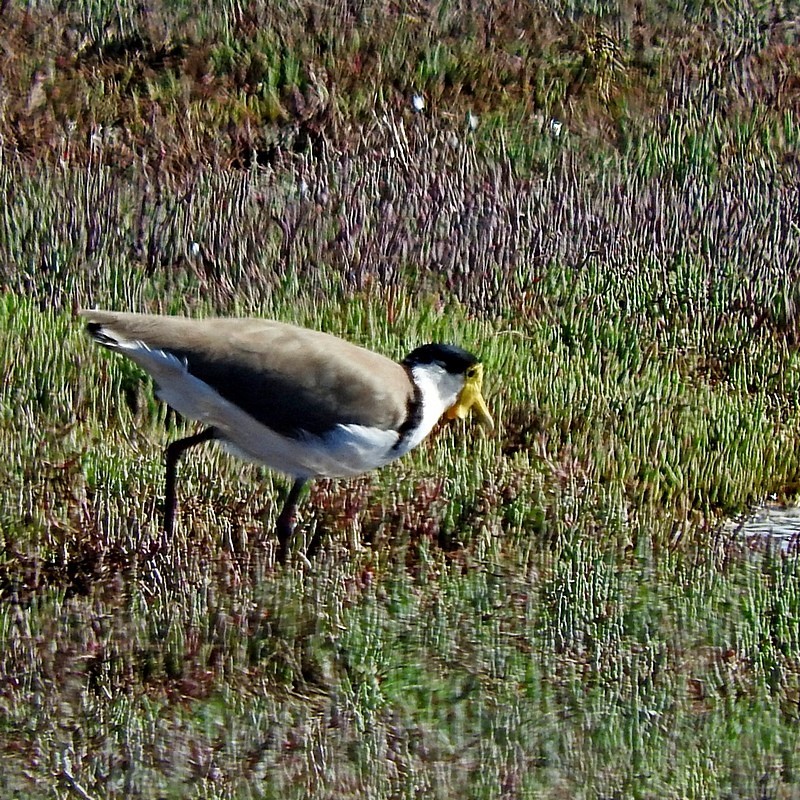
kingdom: Animalia
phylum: Chordata
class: Aves
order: Charadriiformes
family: Charadriidae
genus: Vanellus
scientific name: Vanellus miles
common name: Masked lapwing
